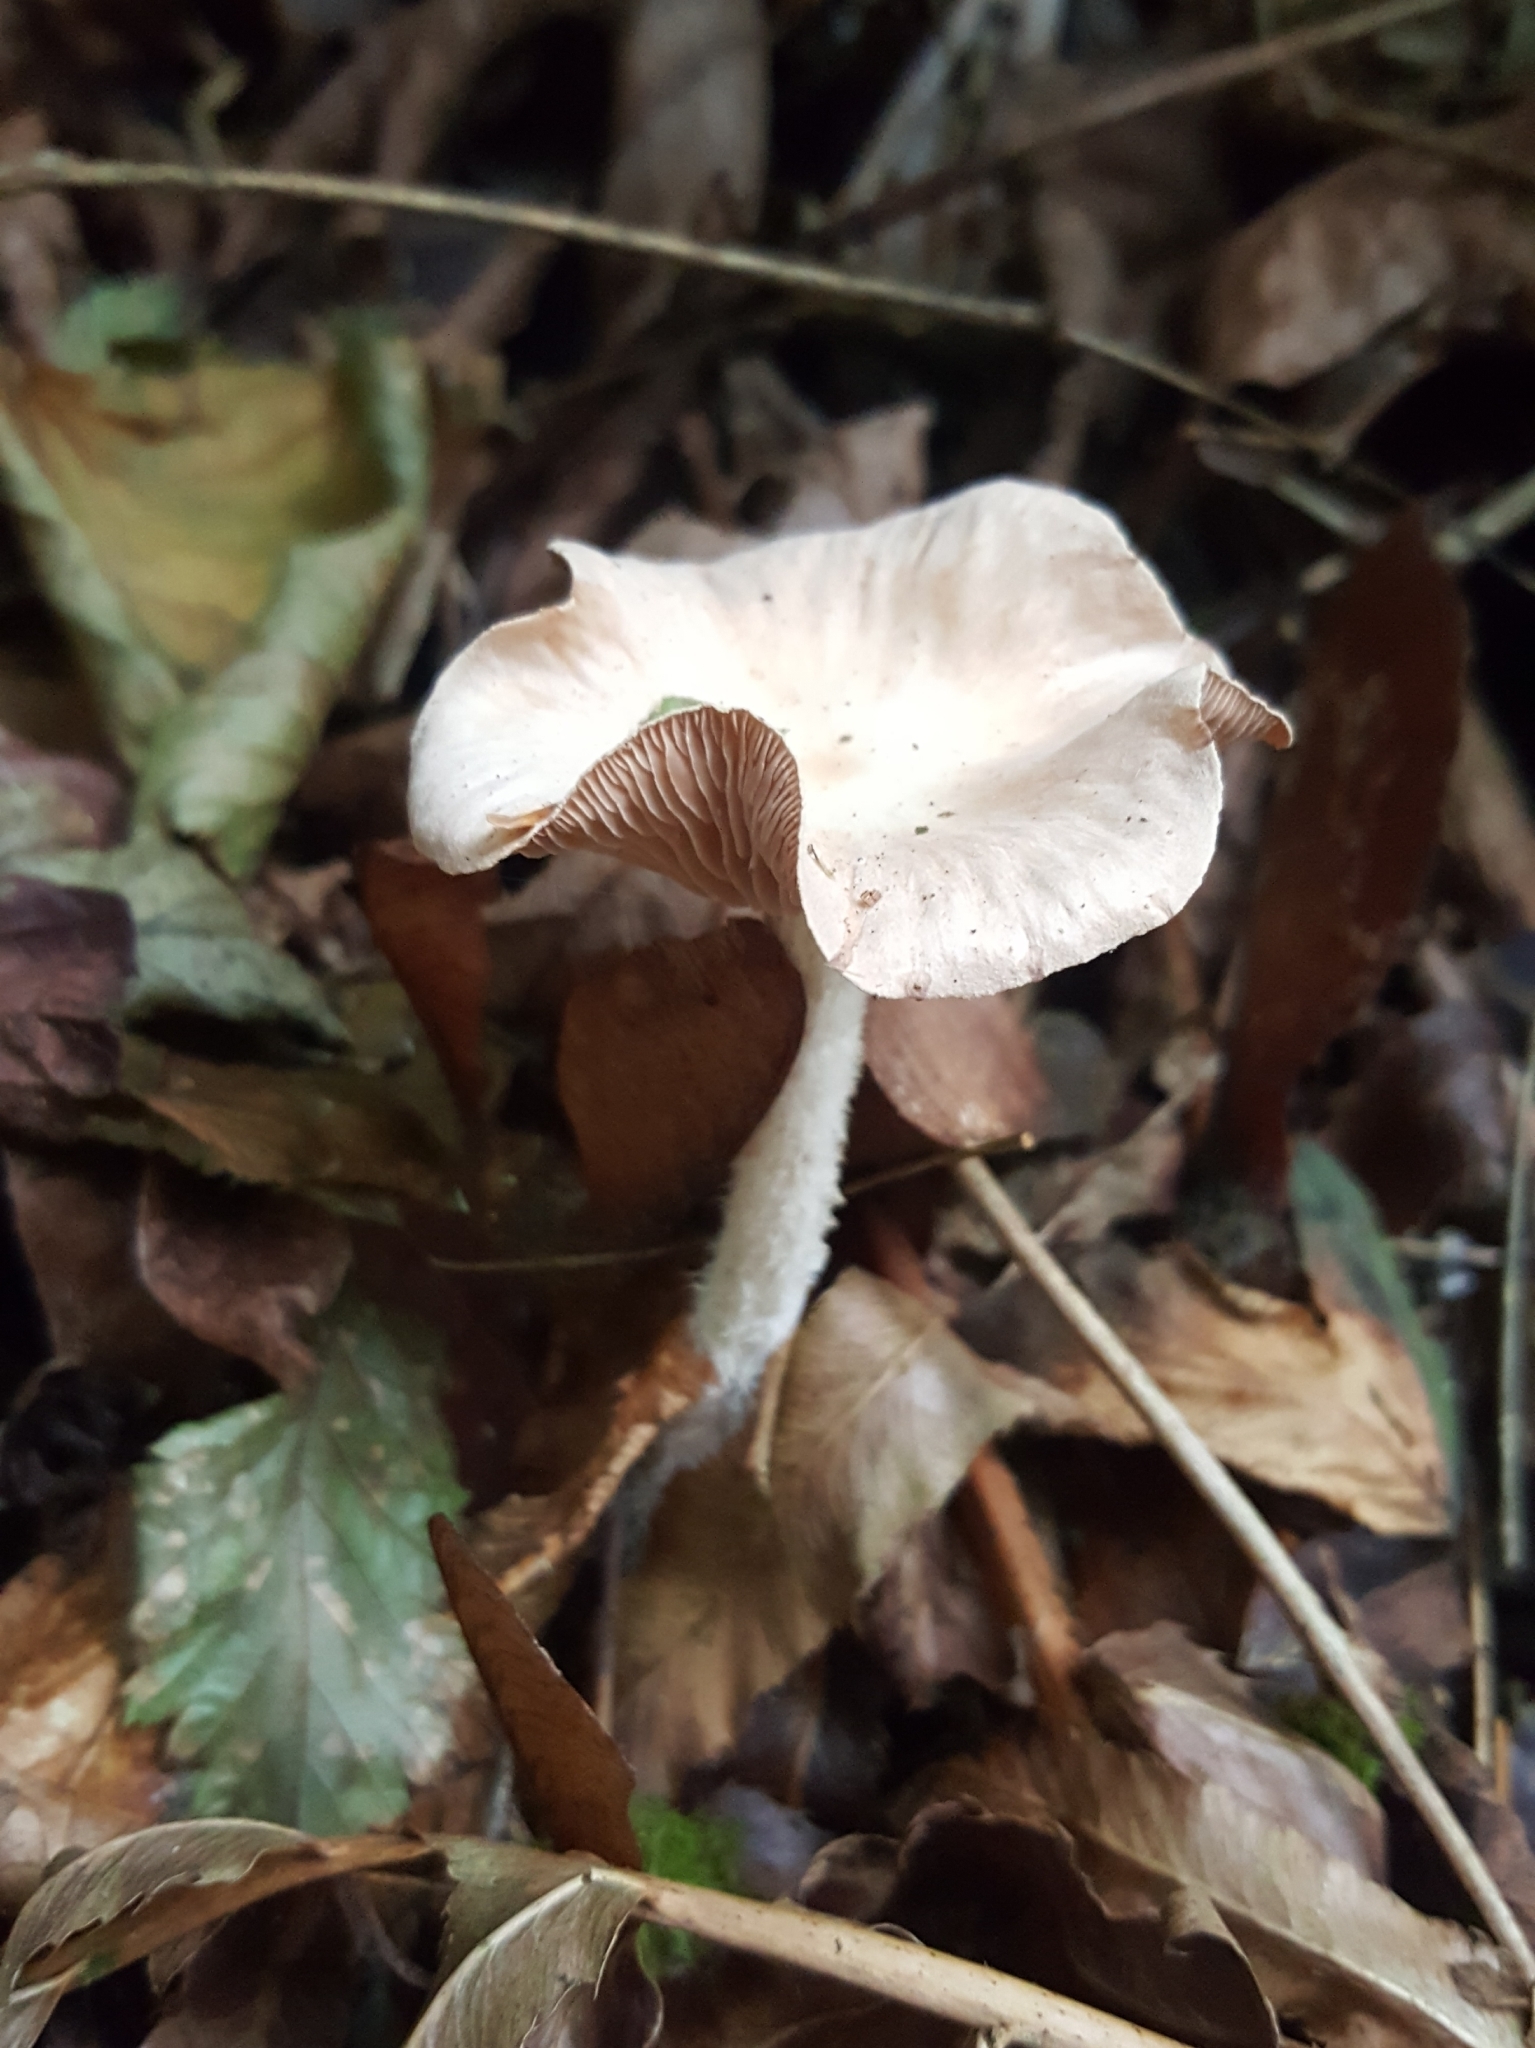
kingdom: Fungi
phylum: Basidiomycota
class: Agaricomycetes
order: Agaricales
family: Omphalotaceae
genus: Collybiopsis
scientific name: Collybiopsis peronata
